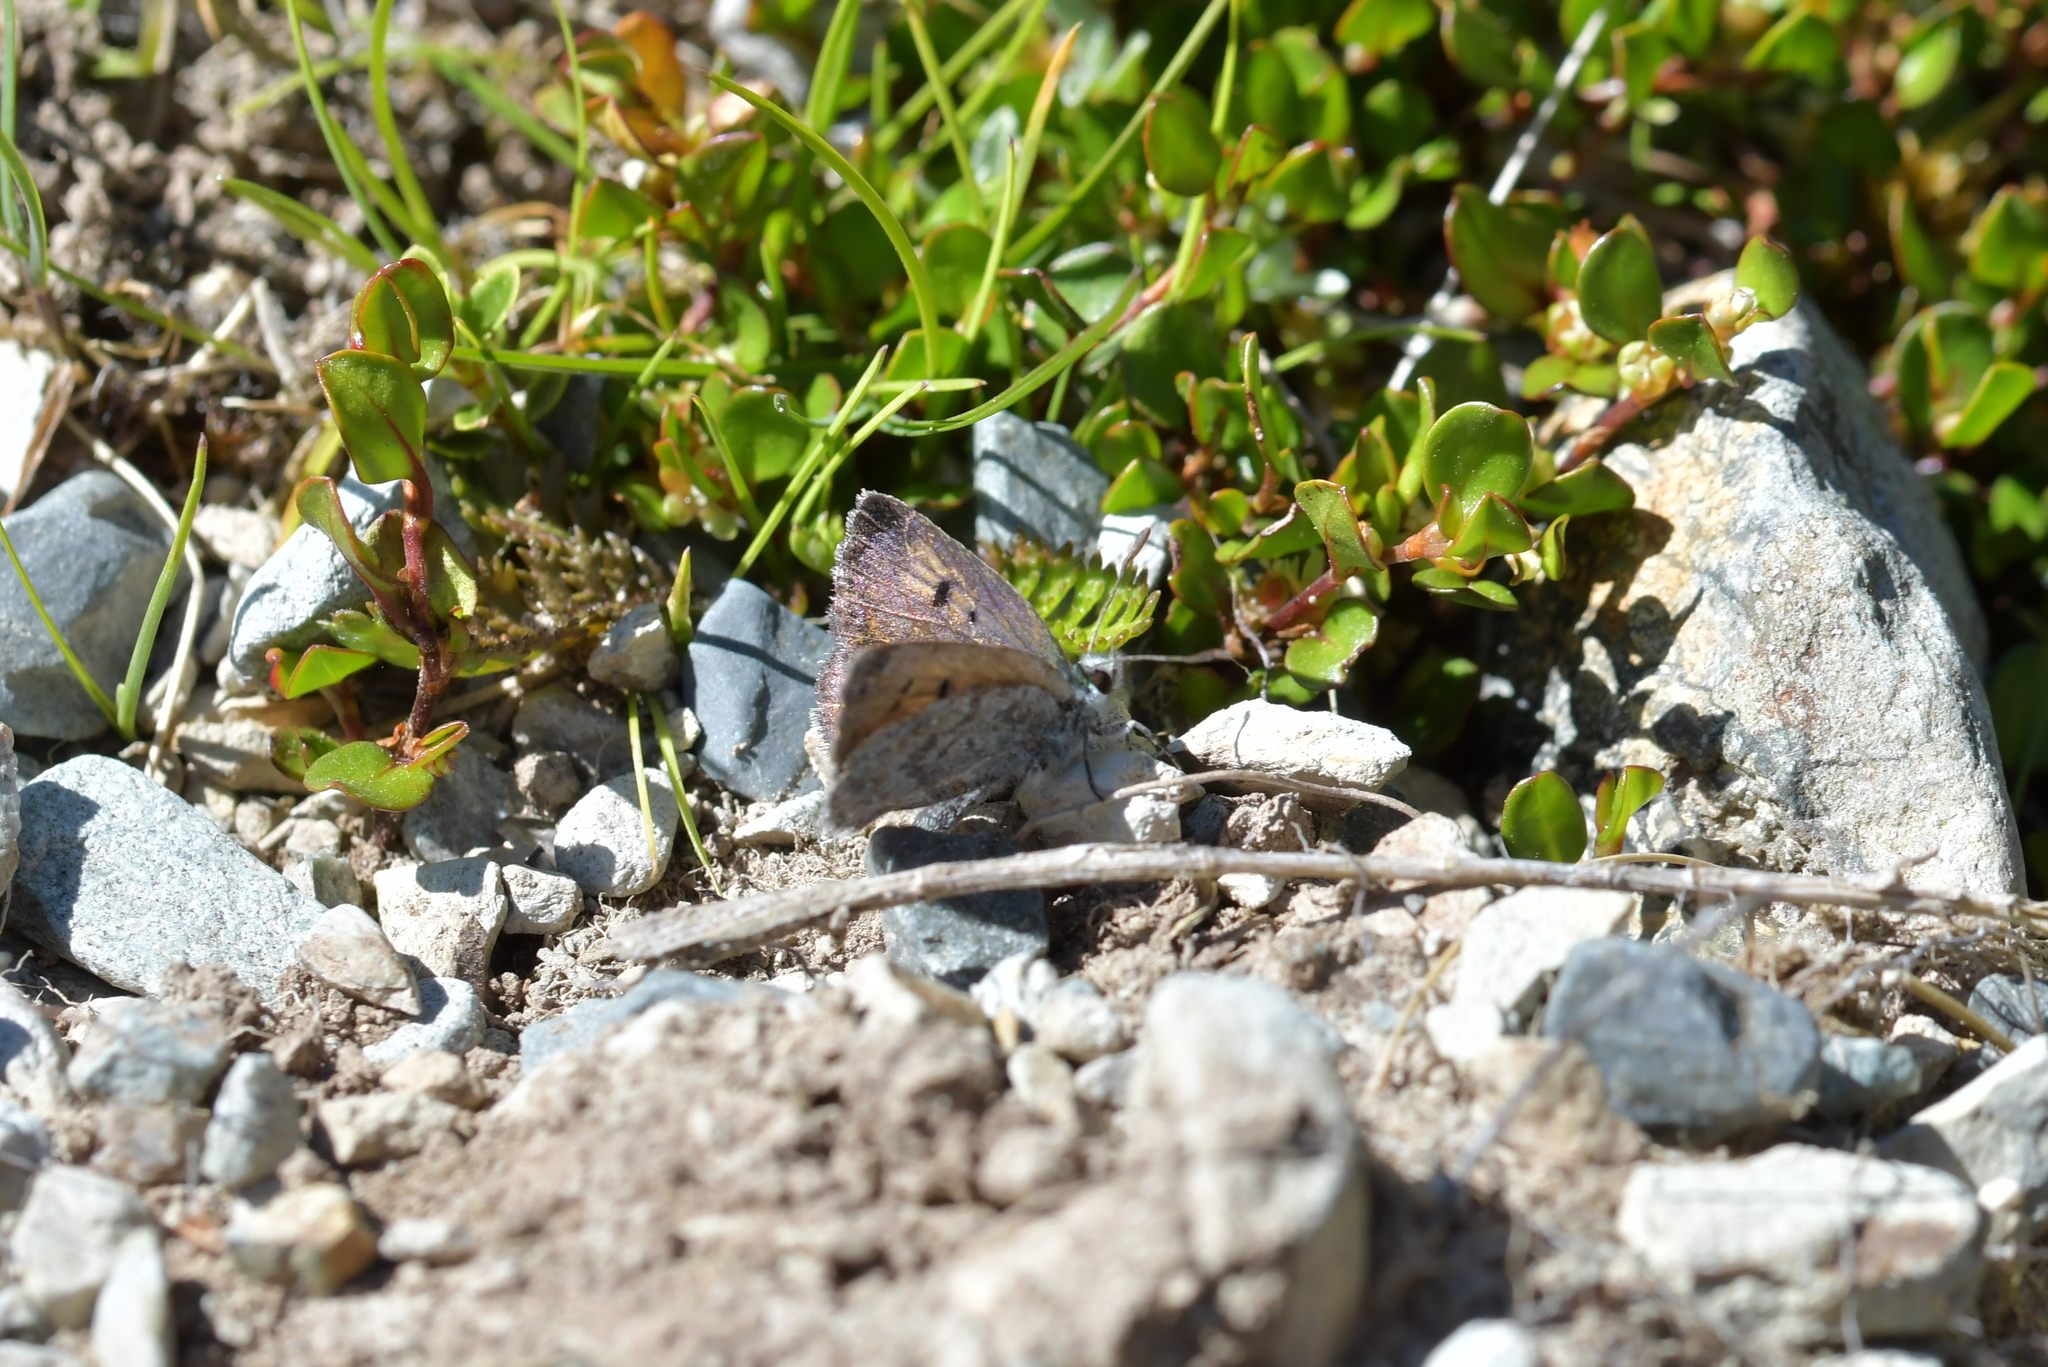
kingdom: Animalia
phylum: Arthropoda
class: Insecta
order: Lepidoptera
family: Lycaenidae
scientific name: Lycaenidae
